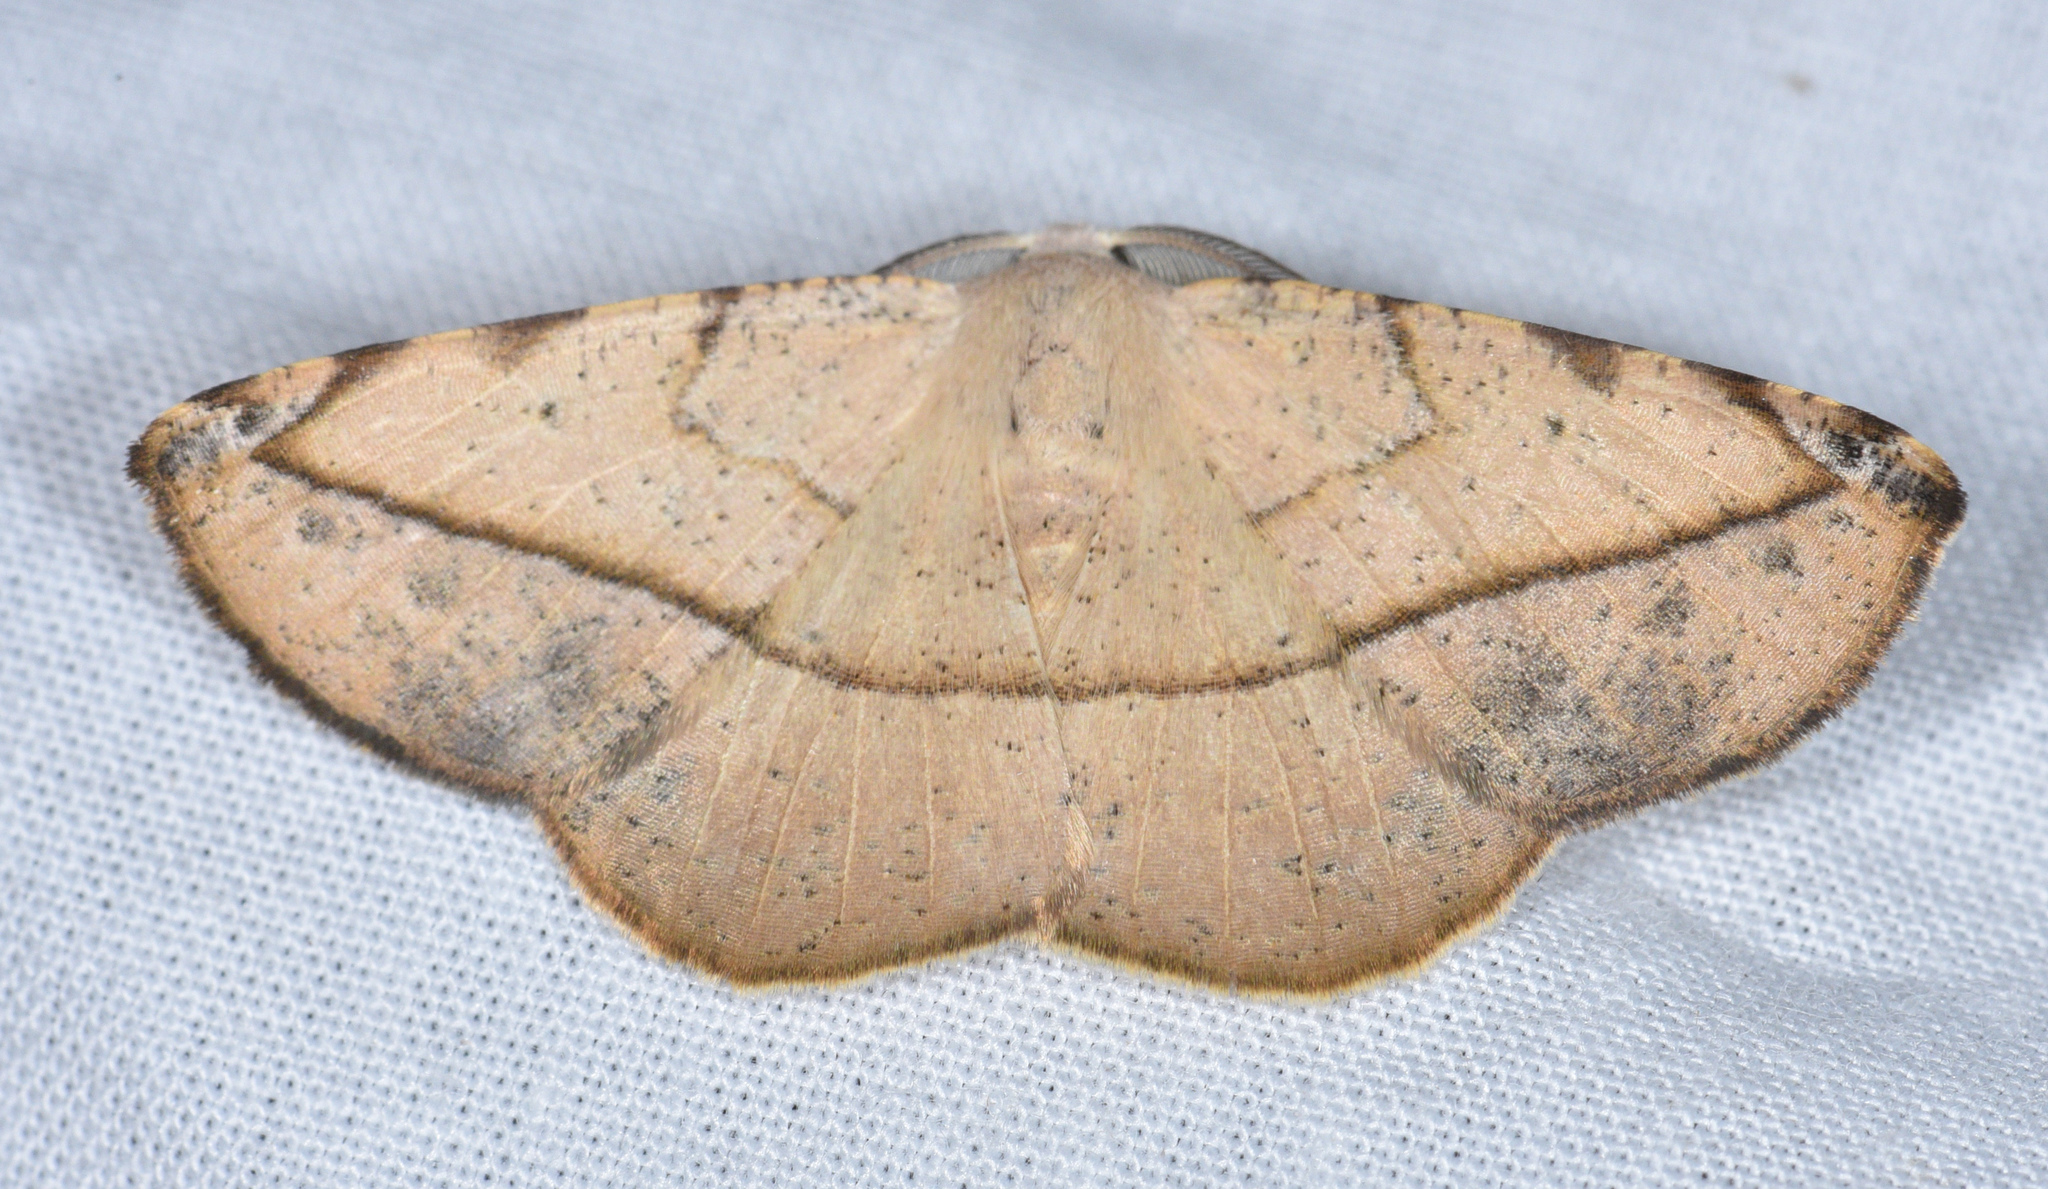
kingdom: Animalia
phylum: Arthropoda
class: Insecta
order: Lepidoptera
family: Geometridae
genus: Eusarca
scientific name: Eusarca cayennaria
